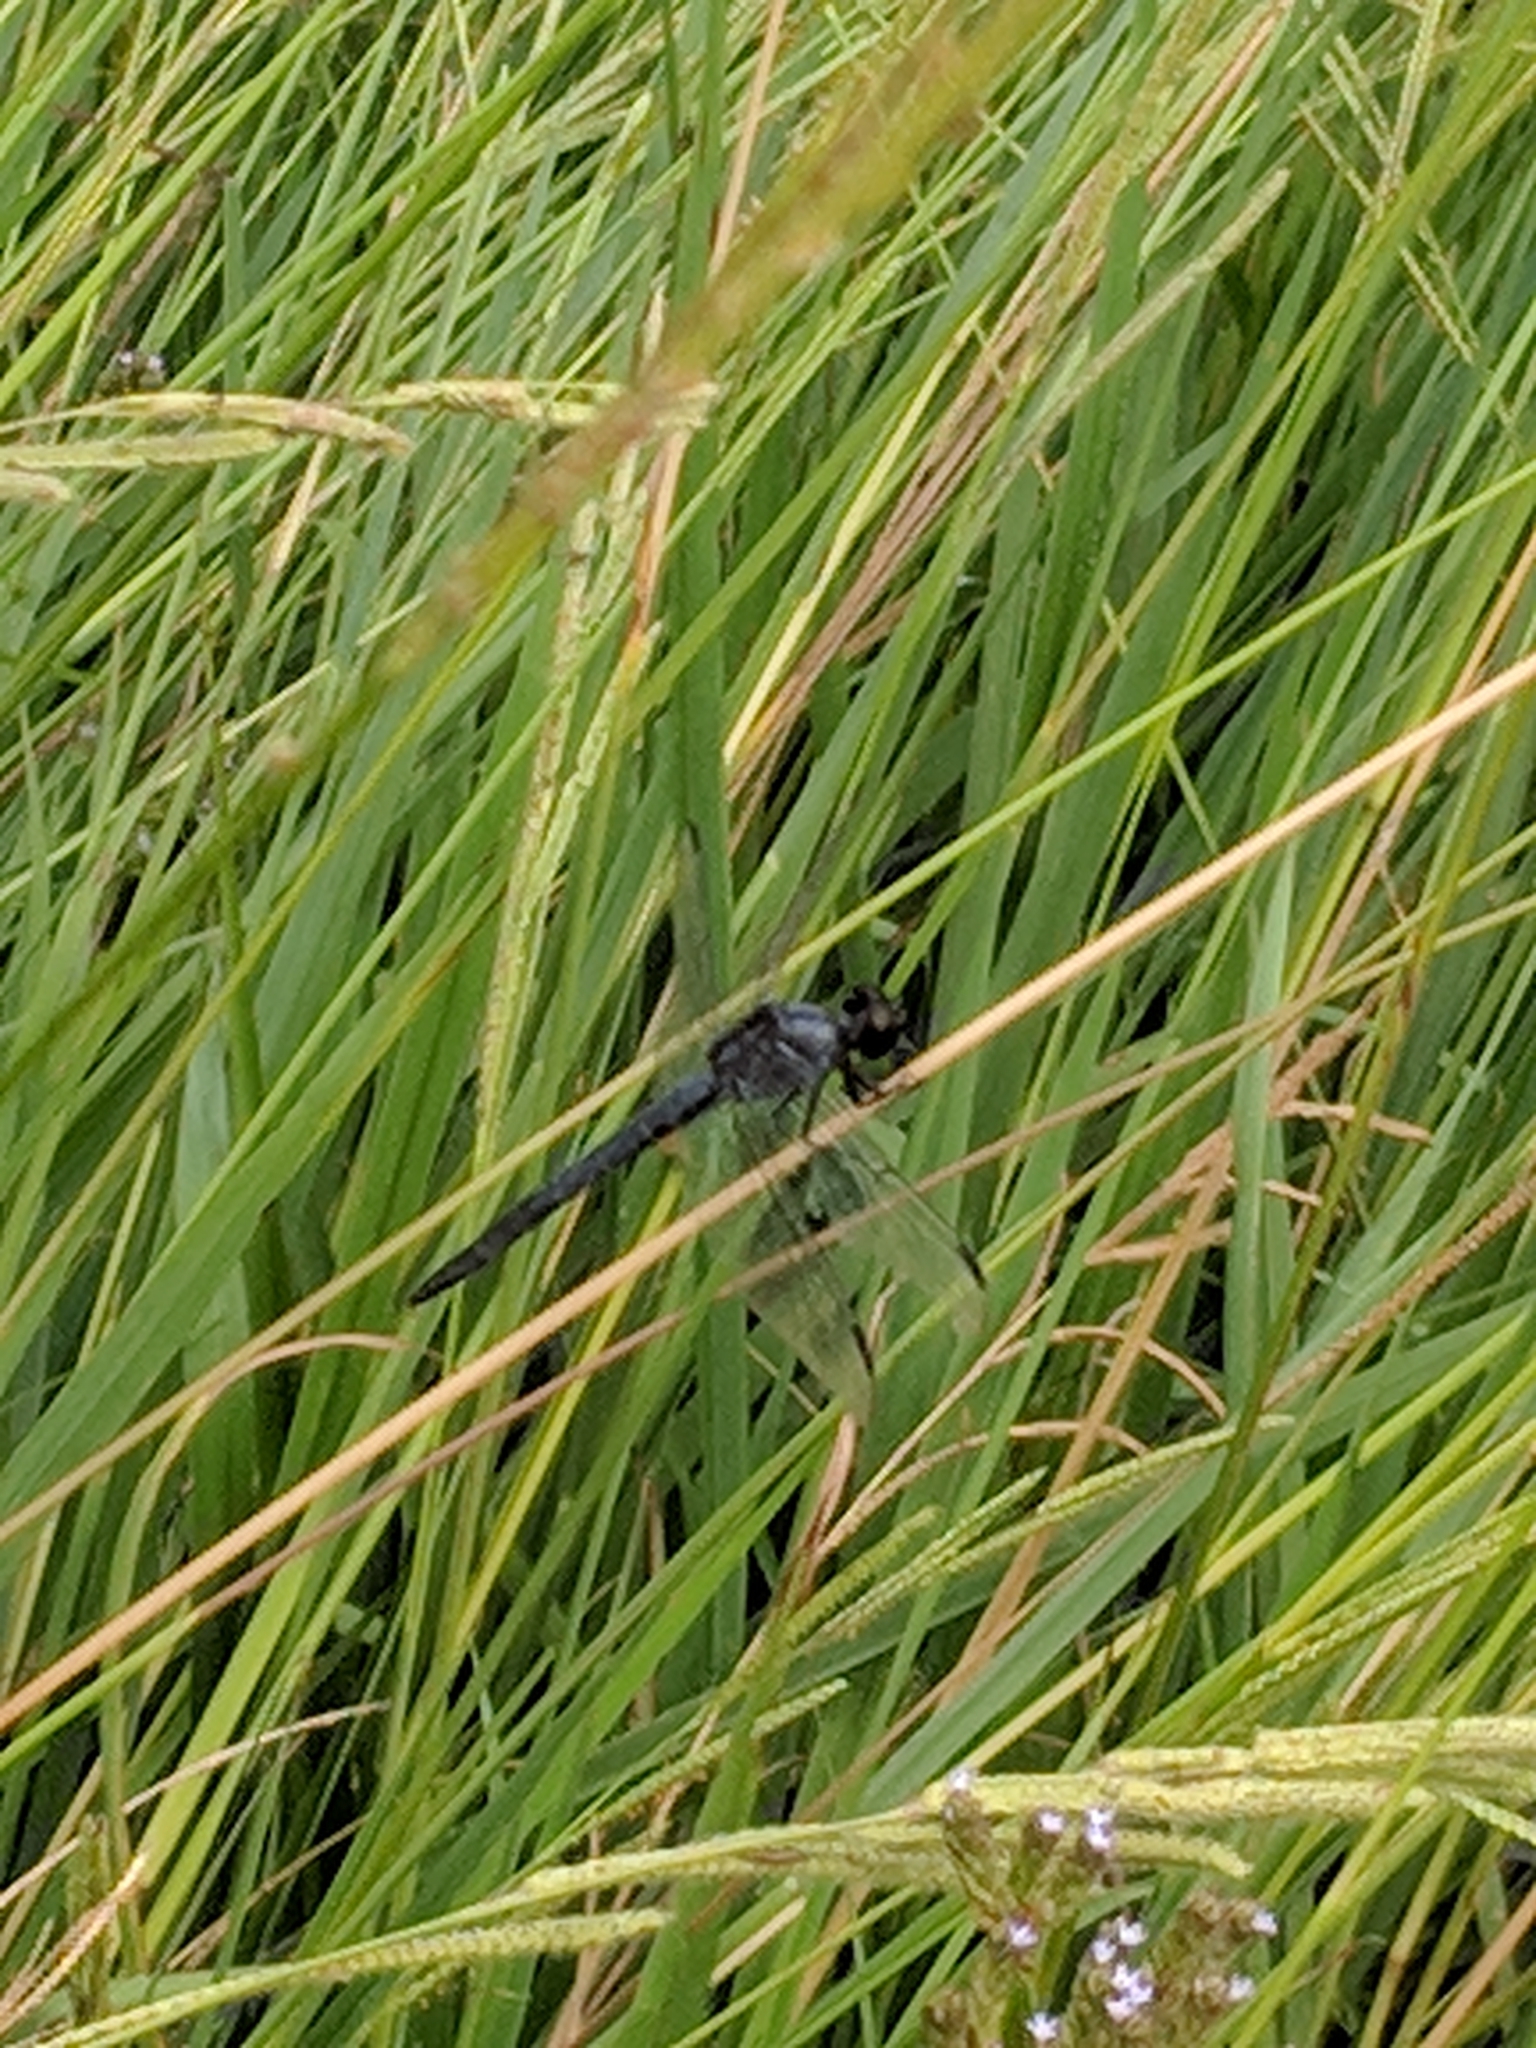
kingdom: Animalia
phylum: Arthropoda
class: Insecta
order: Odonata
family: Libellulidae
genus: Libellula
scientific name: Libellula incesta
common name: Slaty skimmer
